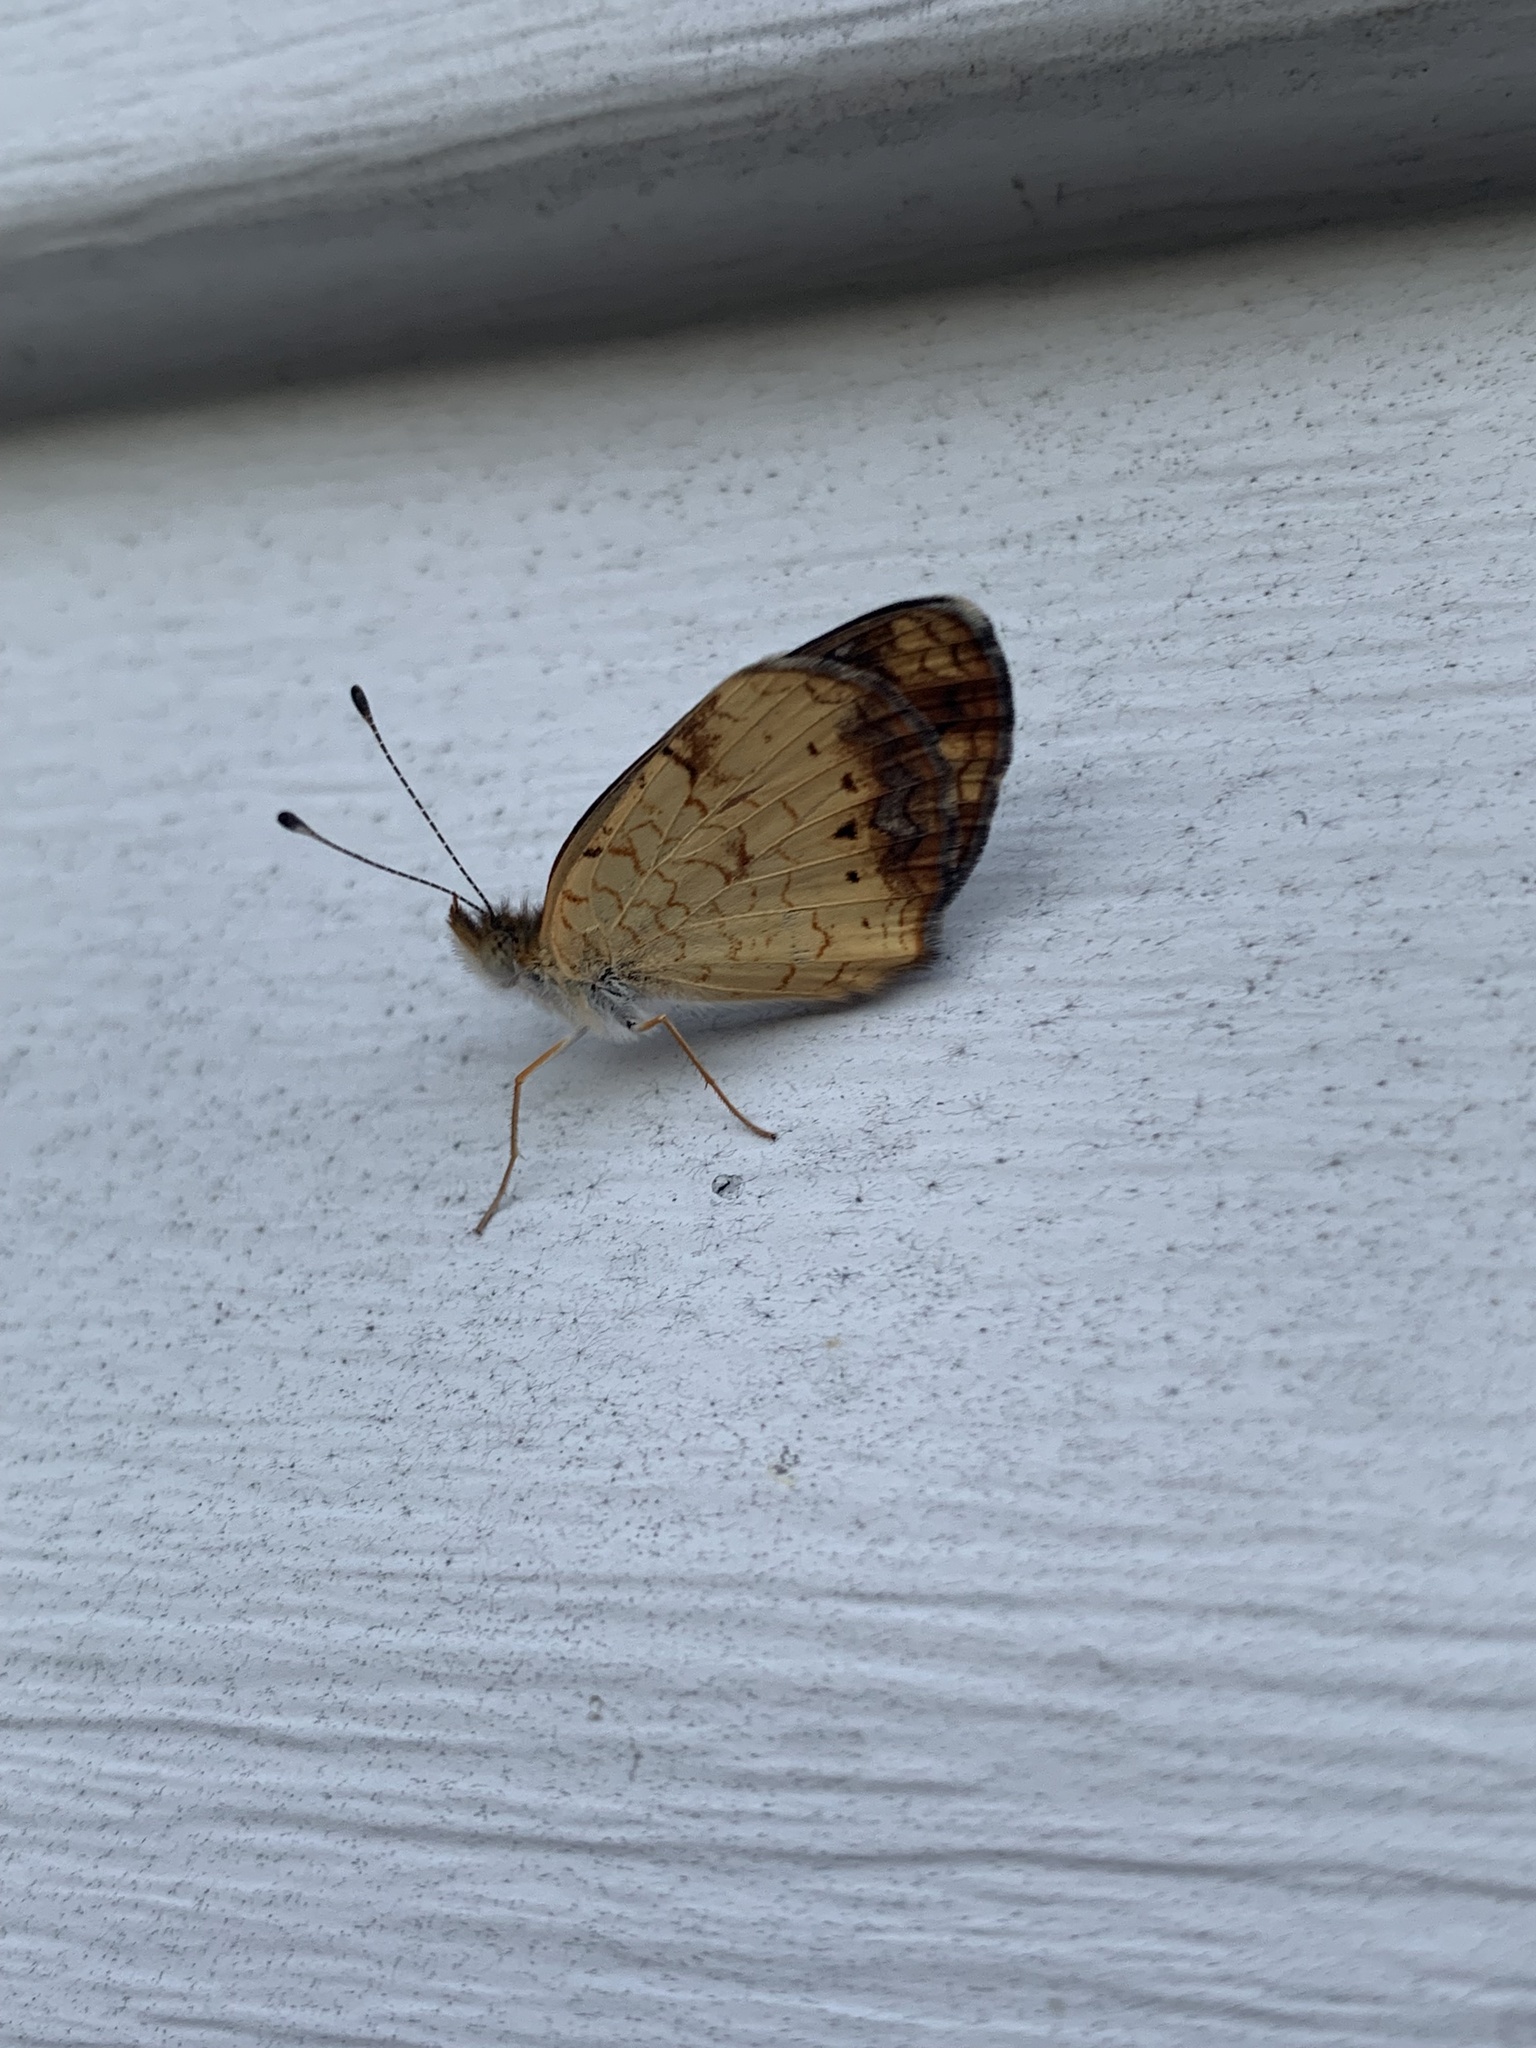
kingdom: Animalia
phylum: Arthropoda
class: Insecta
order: Lepidoptera
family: Nymphalidae
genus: Phyciodes
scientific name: Phyciodes tharos
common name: Pearl crescent
